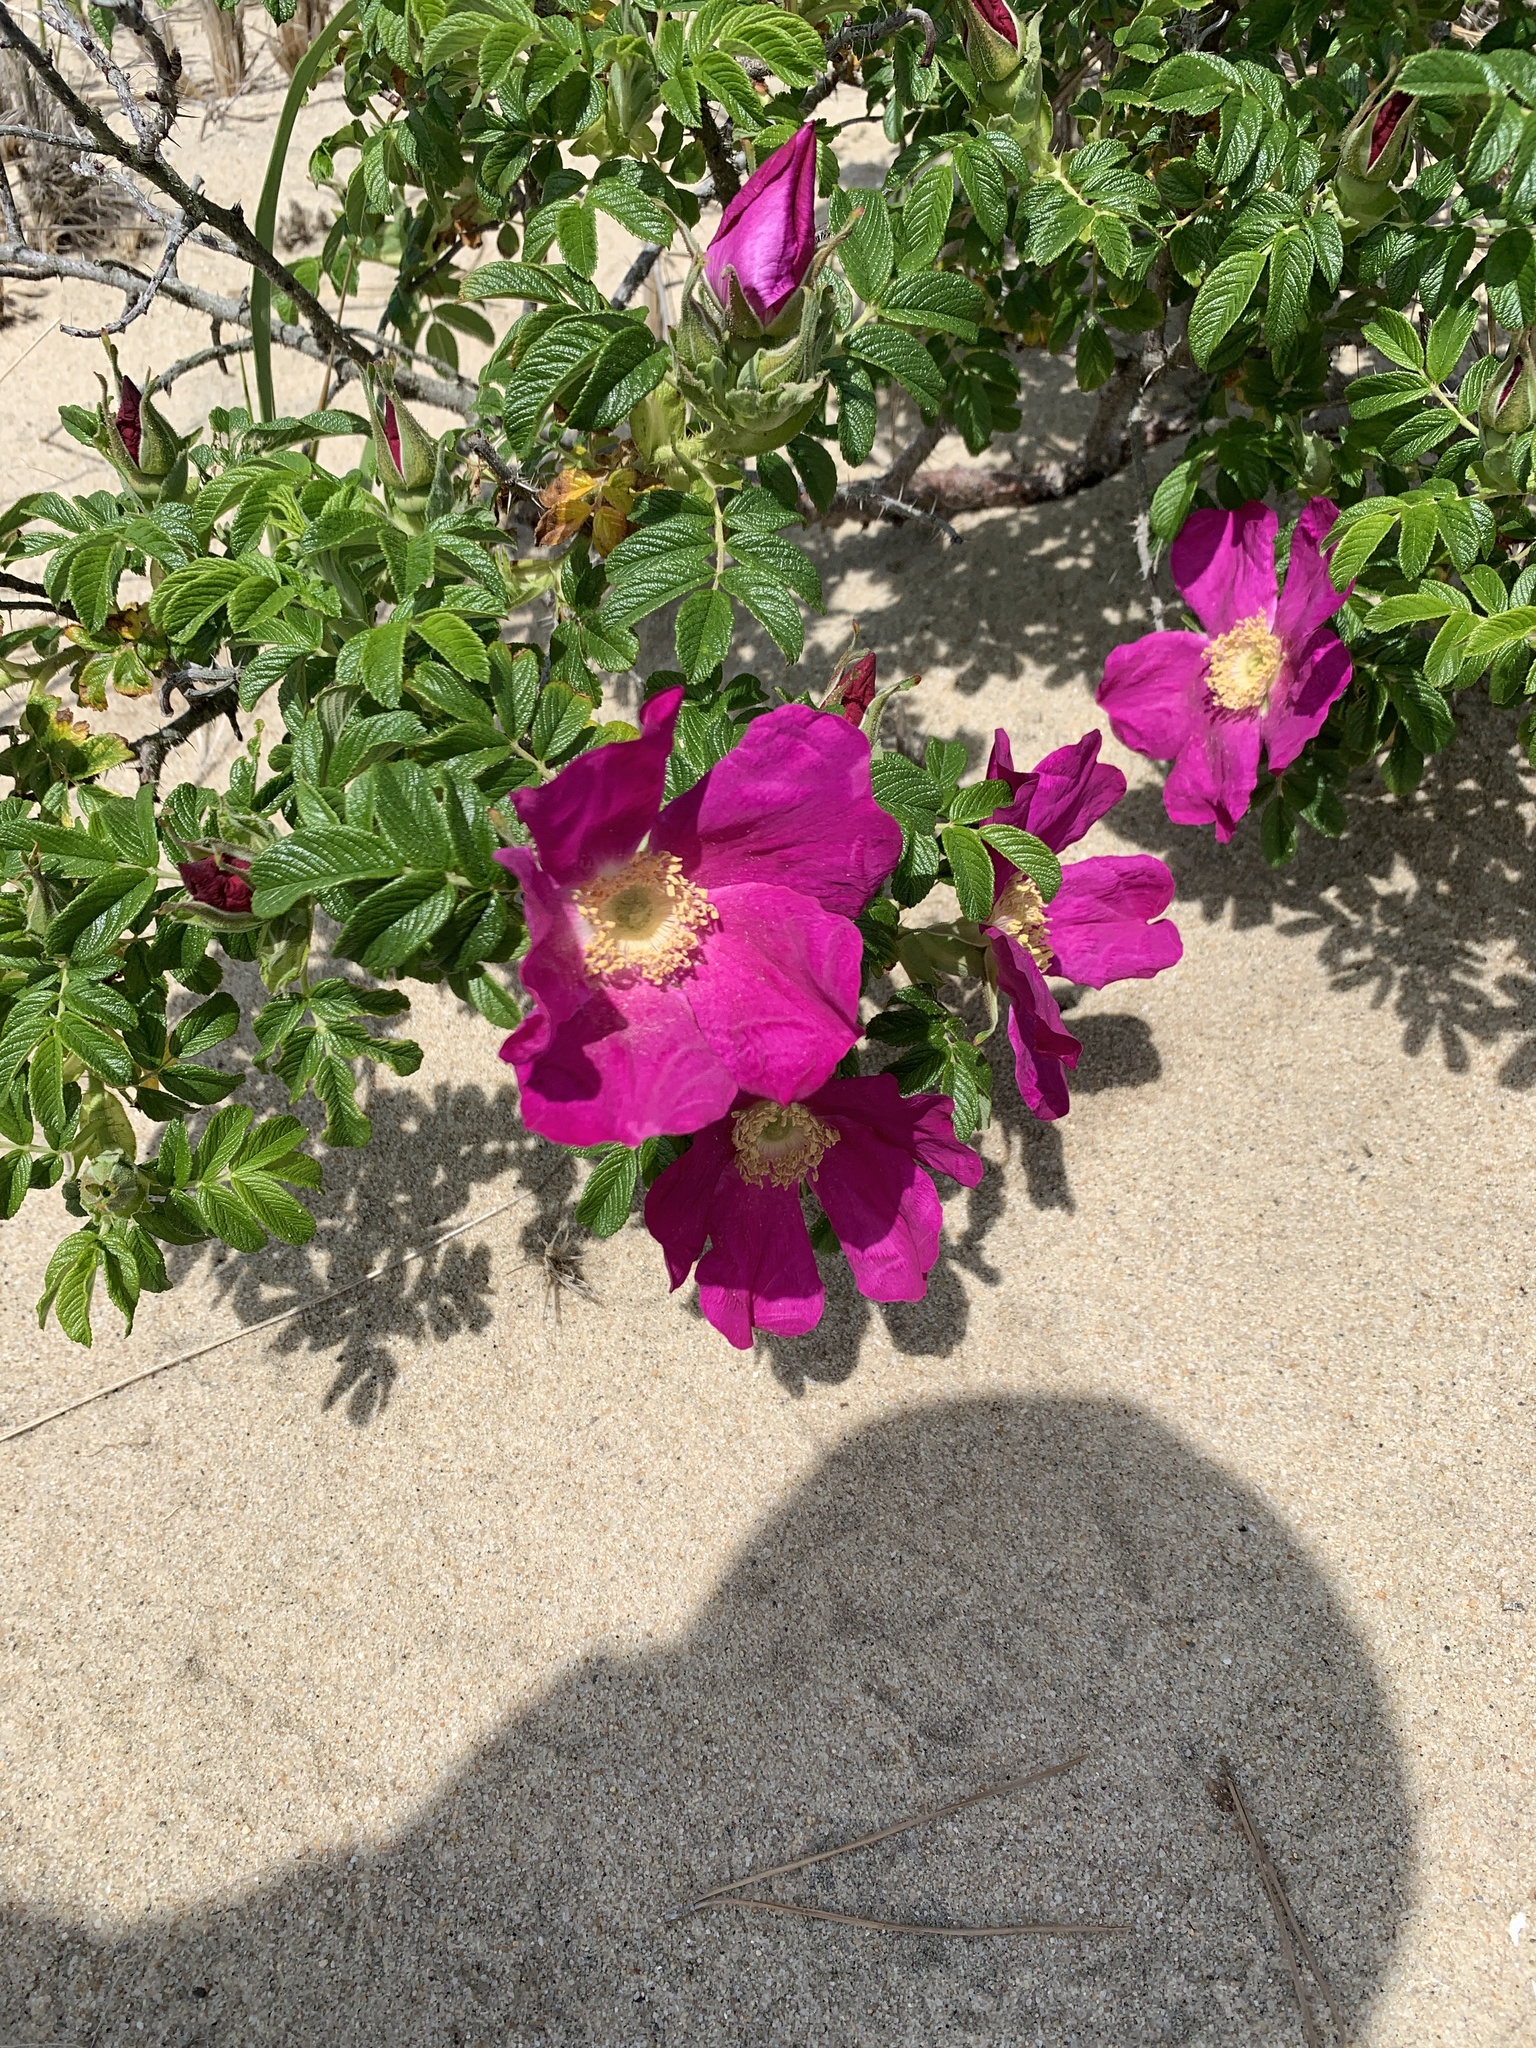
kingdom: Plantae
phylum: Tracheophyta
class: Magnoliopsida
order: Rosales
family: Rosaceae
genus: Rosa
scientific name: Rosa rugosa
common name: Japanese rose
